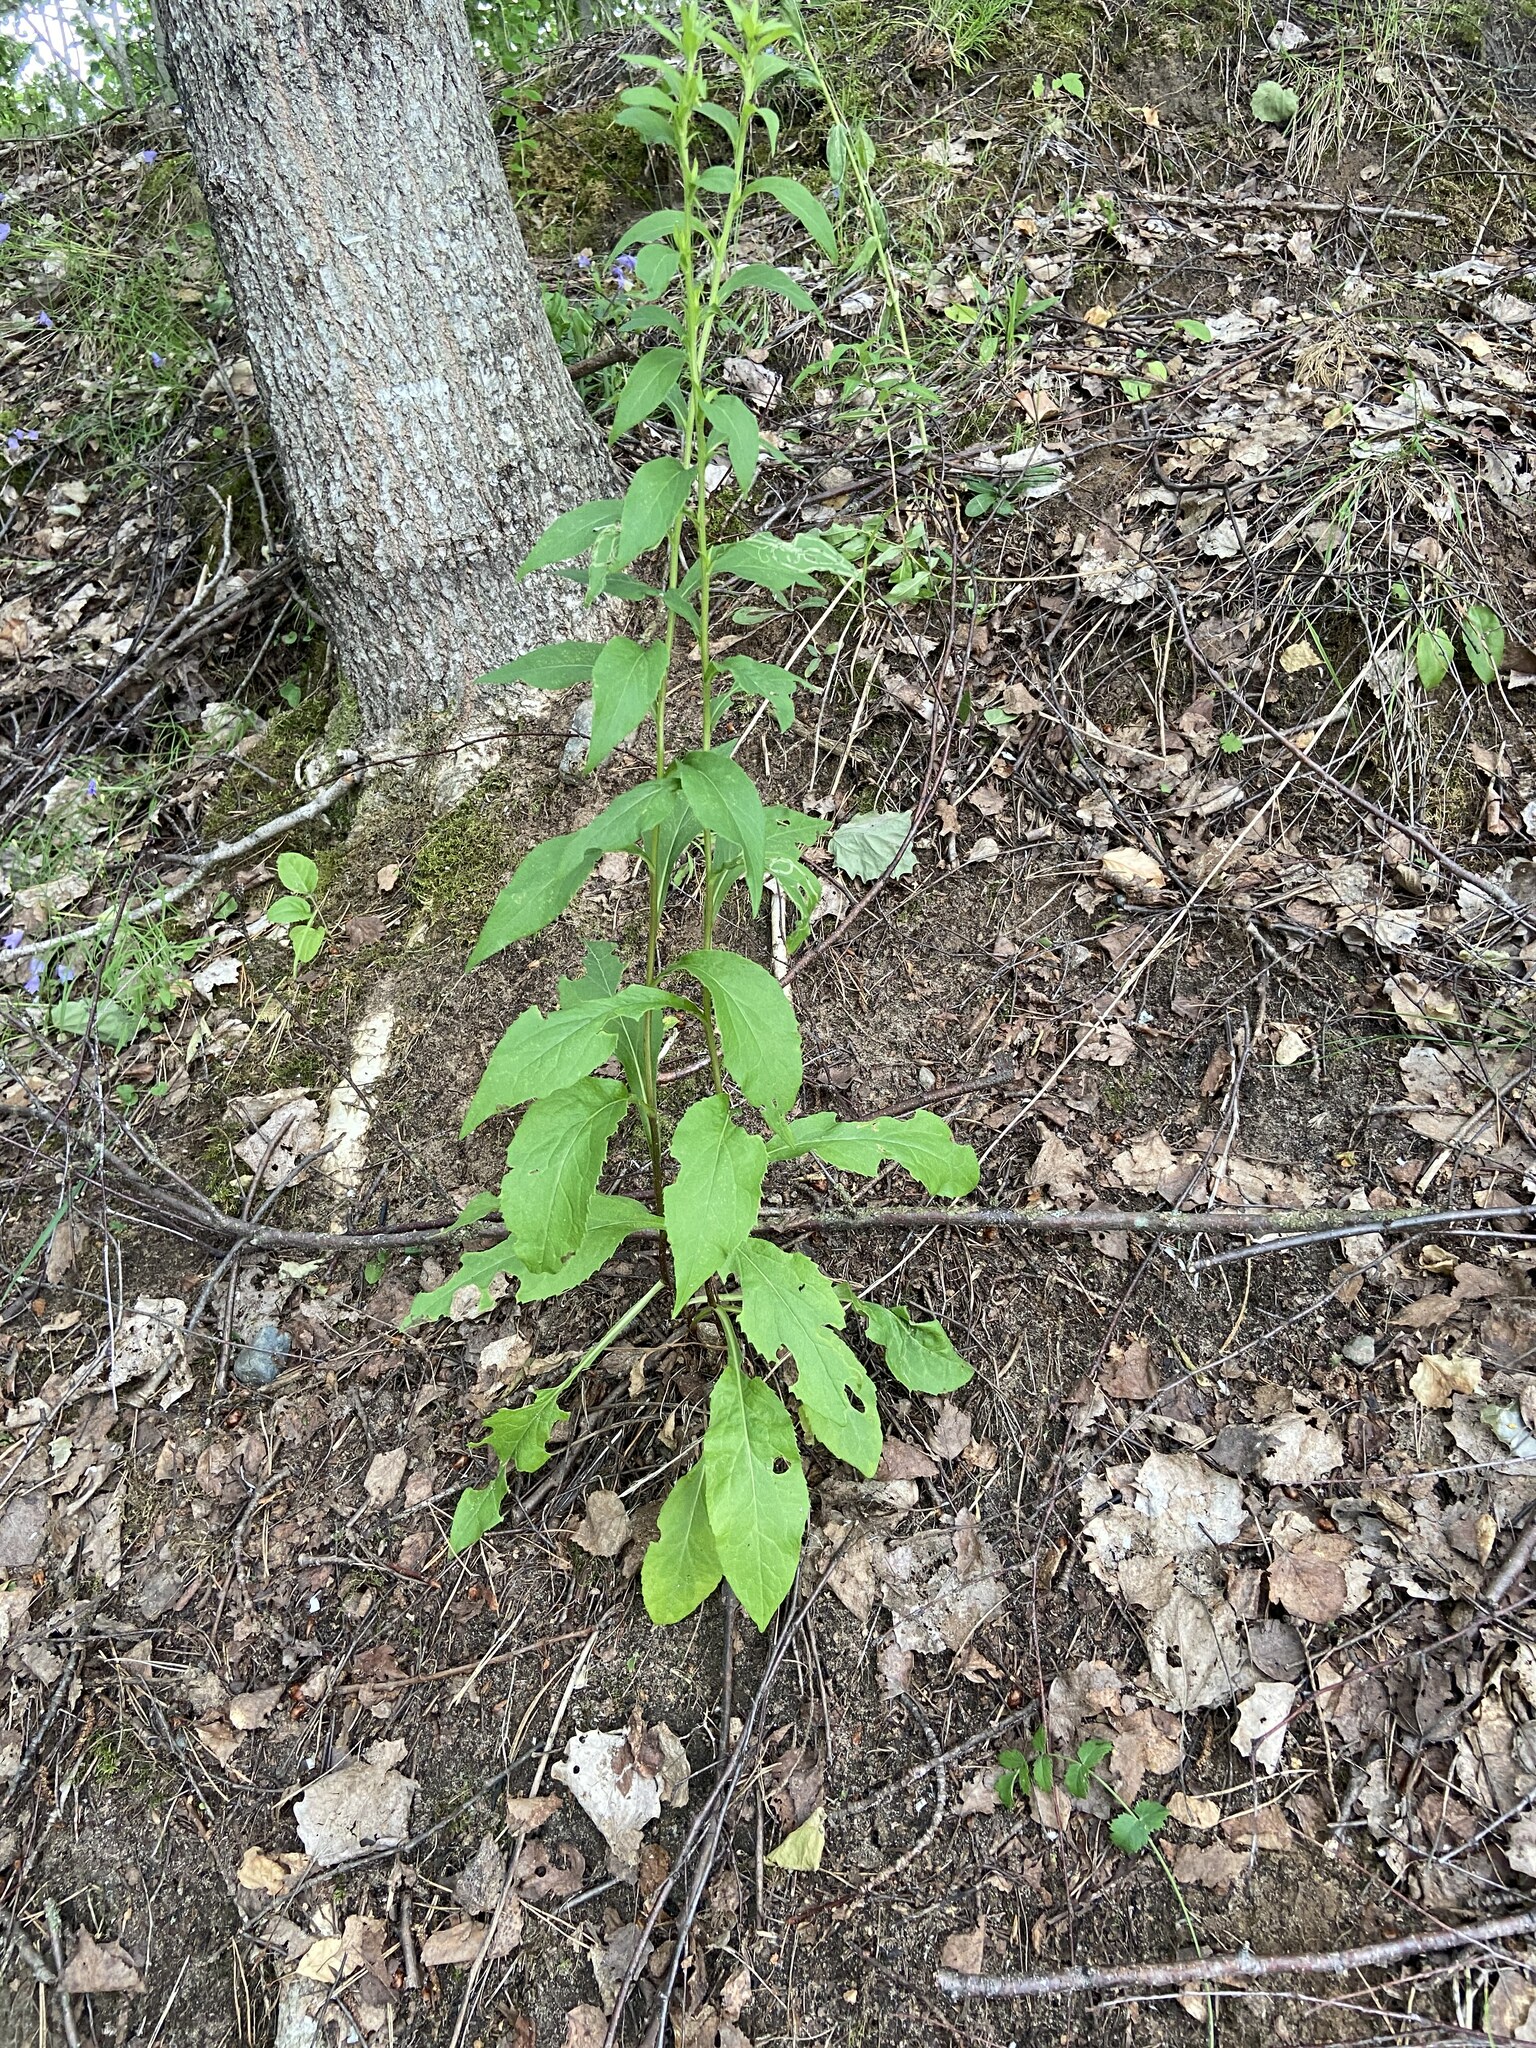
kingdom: Plantae
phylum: Tracheophyta
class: Magnoliopsida
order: Asterales
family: Asteraceae
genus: Solidago
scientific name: Solidago virgaurea
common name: Goldenrod
